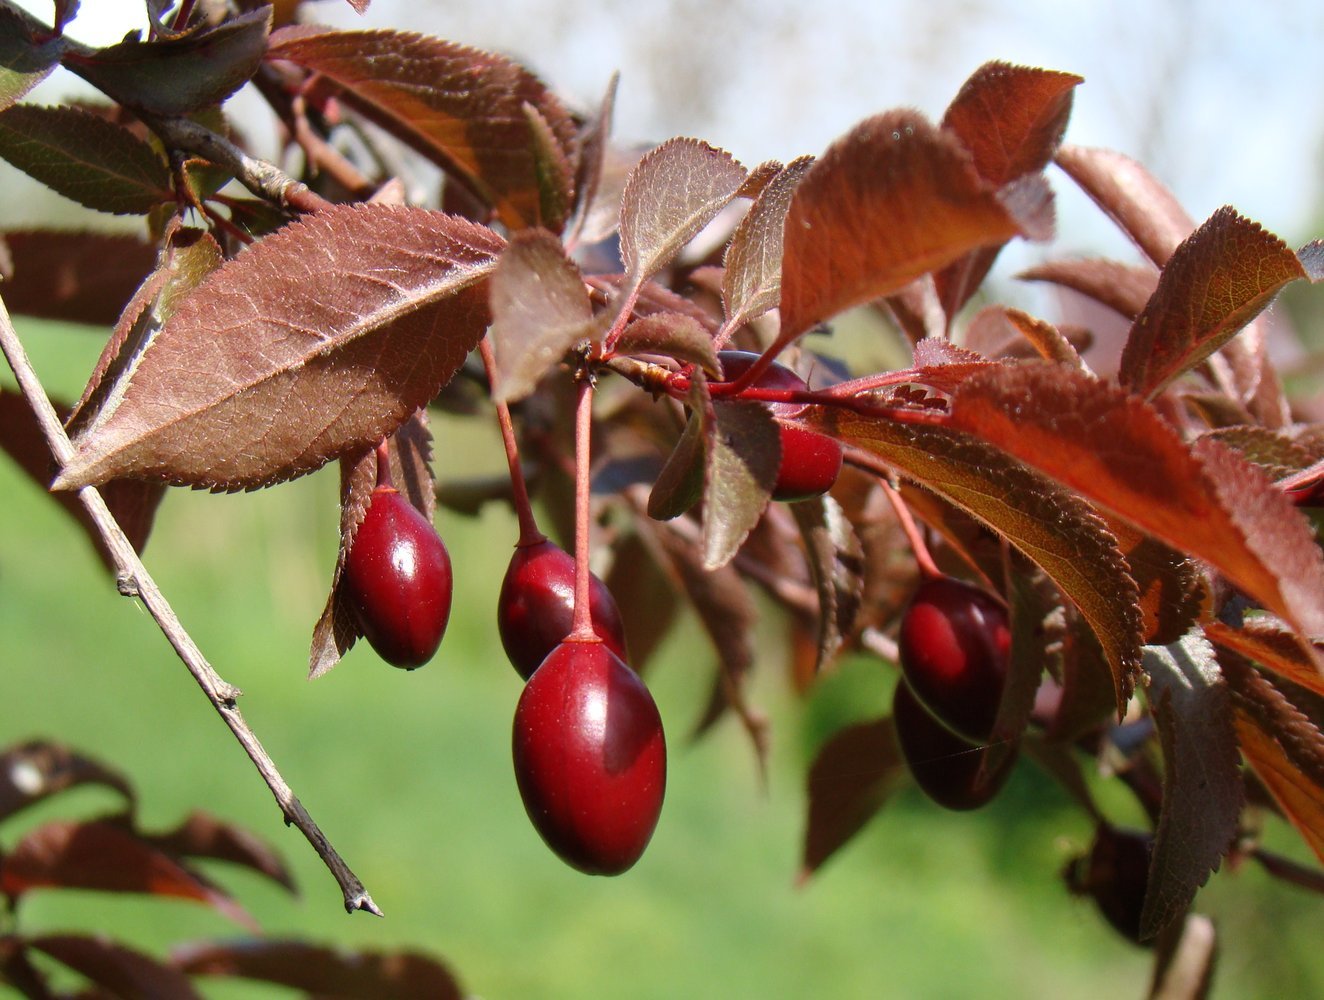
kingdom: Plantae
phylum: Tracheophyta
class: Magnoliopsida
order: Rosales
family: Rosaceae
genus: Prunus
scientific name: Prunus cerasifera
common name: Cherry plum
